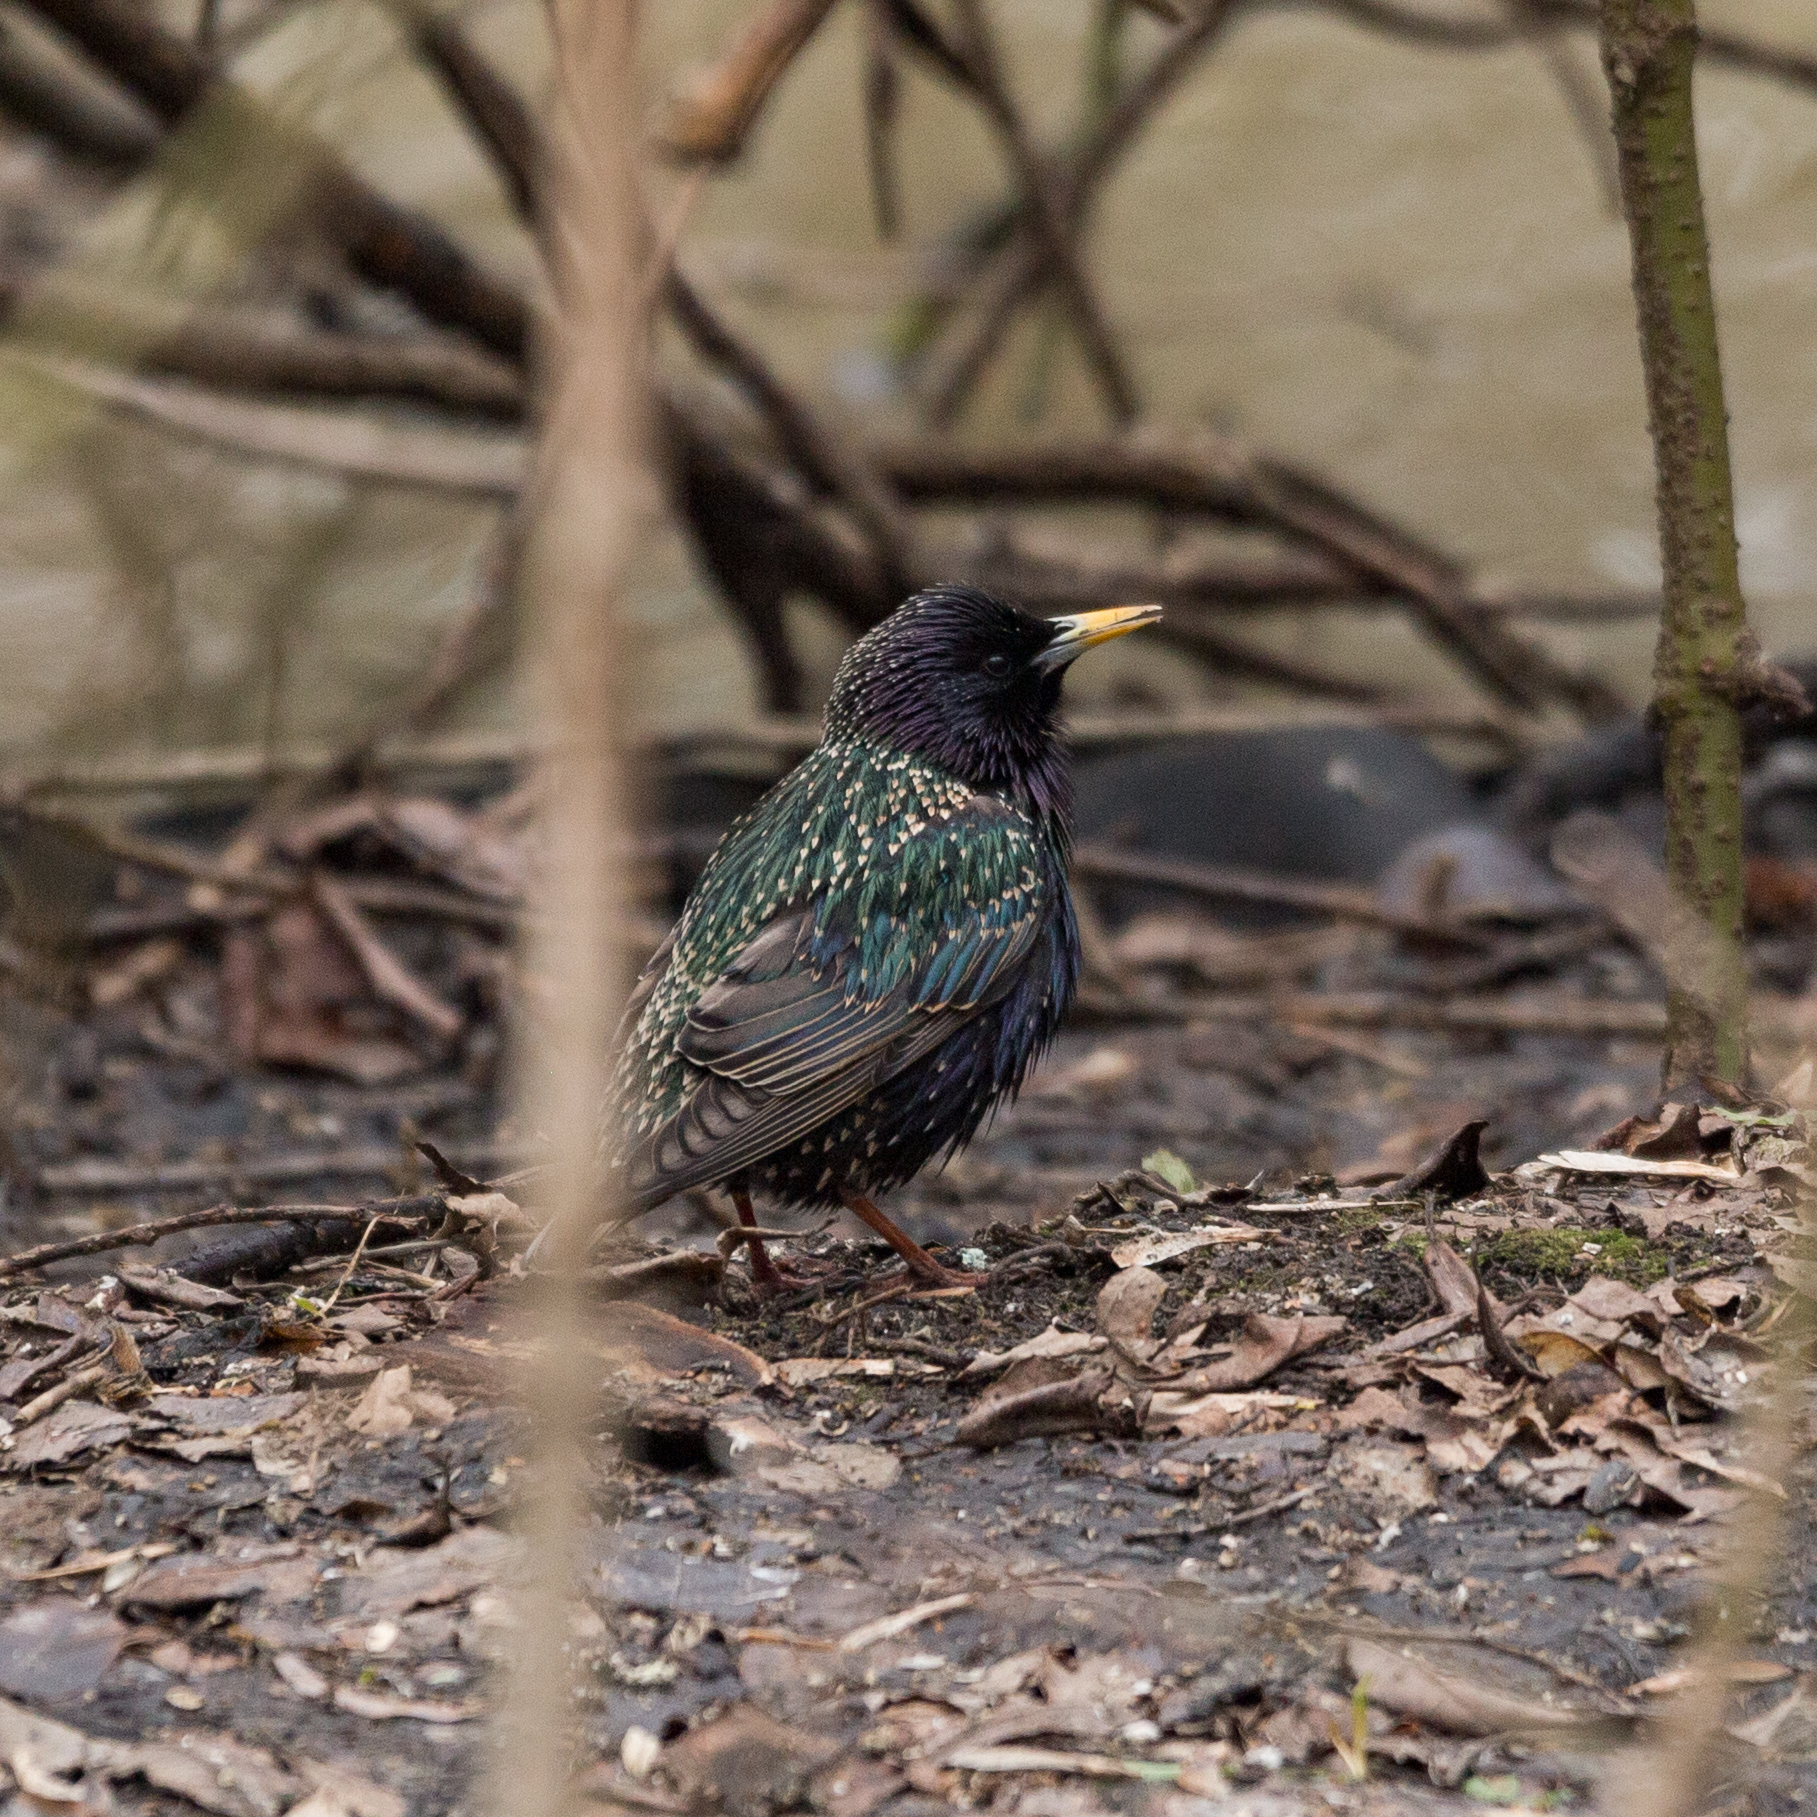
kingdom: Animalia
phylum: Chordata
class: Aves
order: Passeriformes
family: Sturnidae
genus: Sturnus
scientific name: Sturnus vulgaris
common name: Common starling
